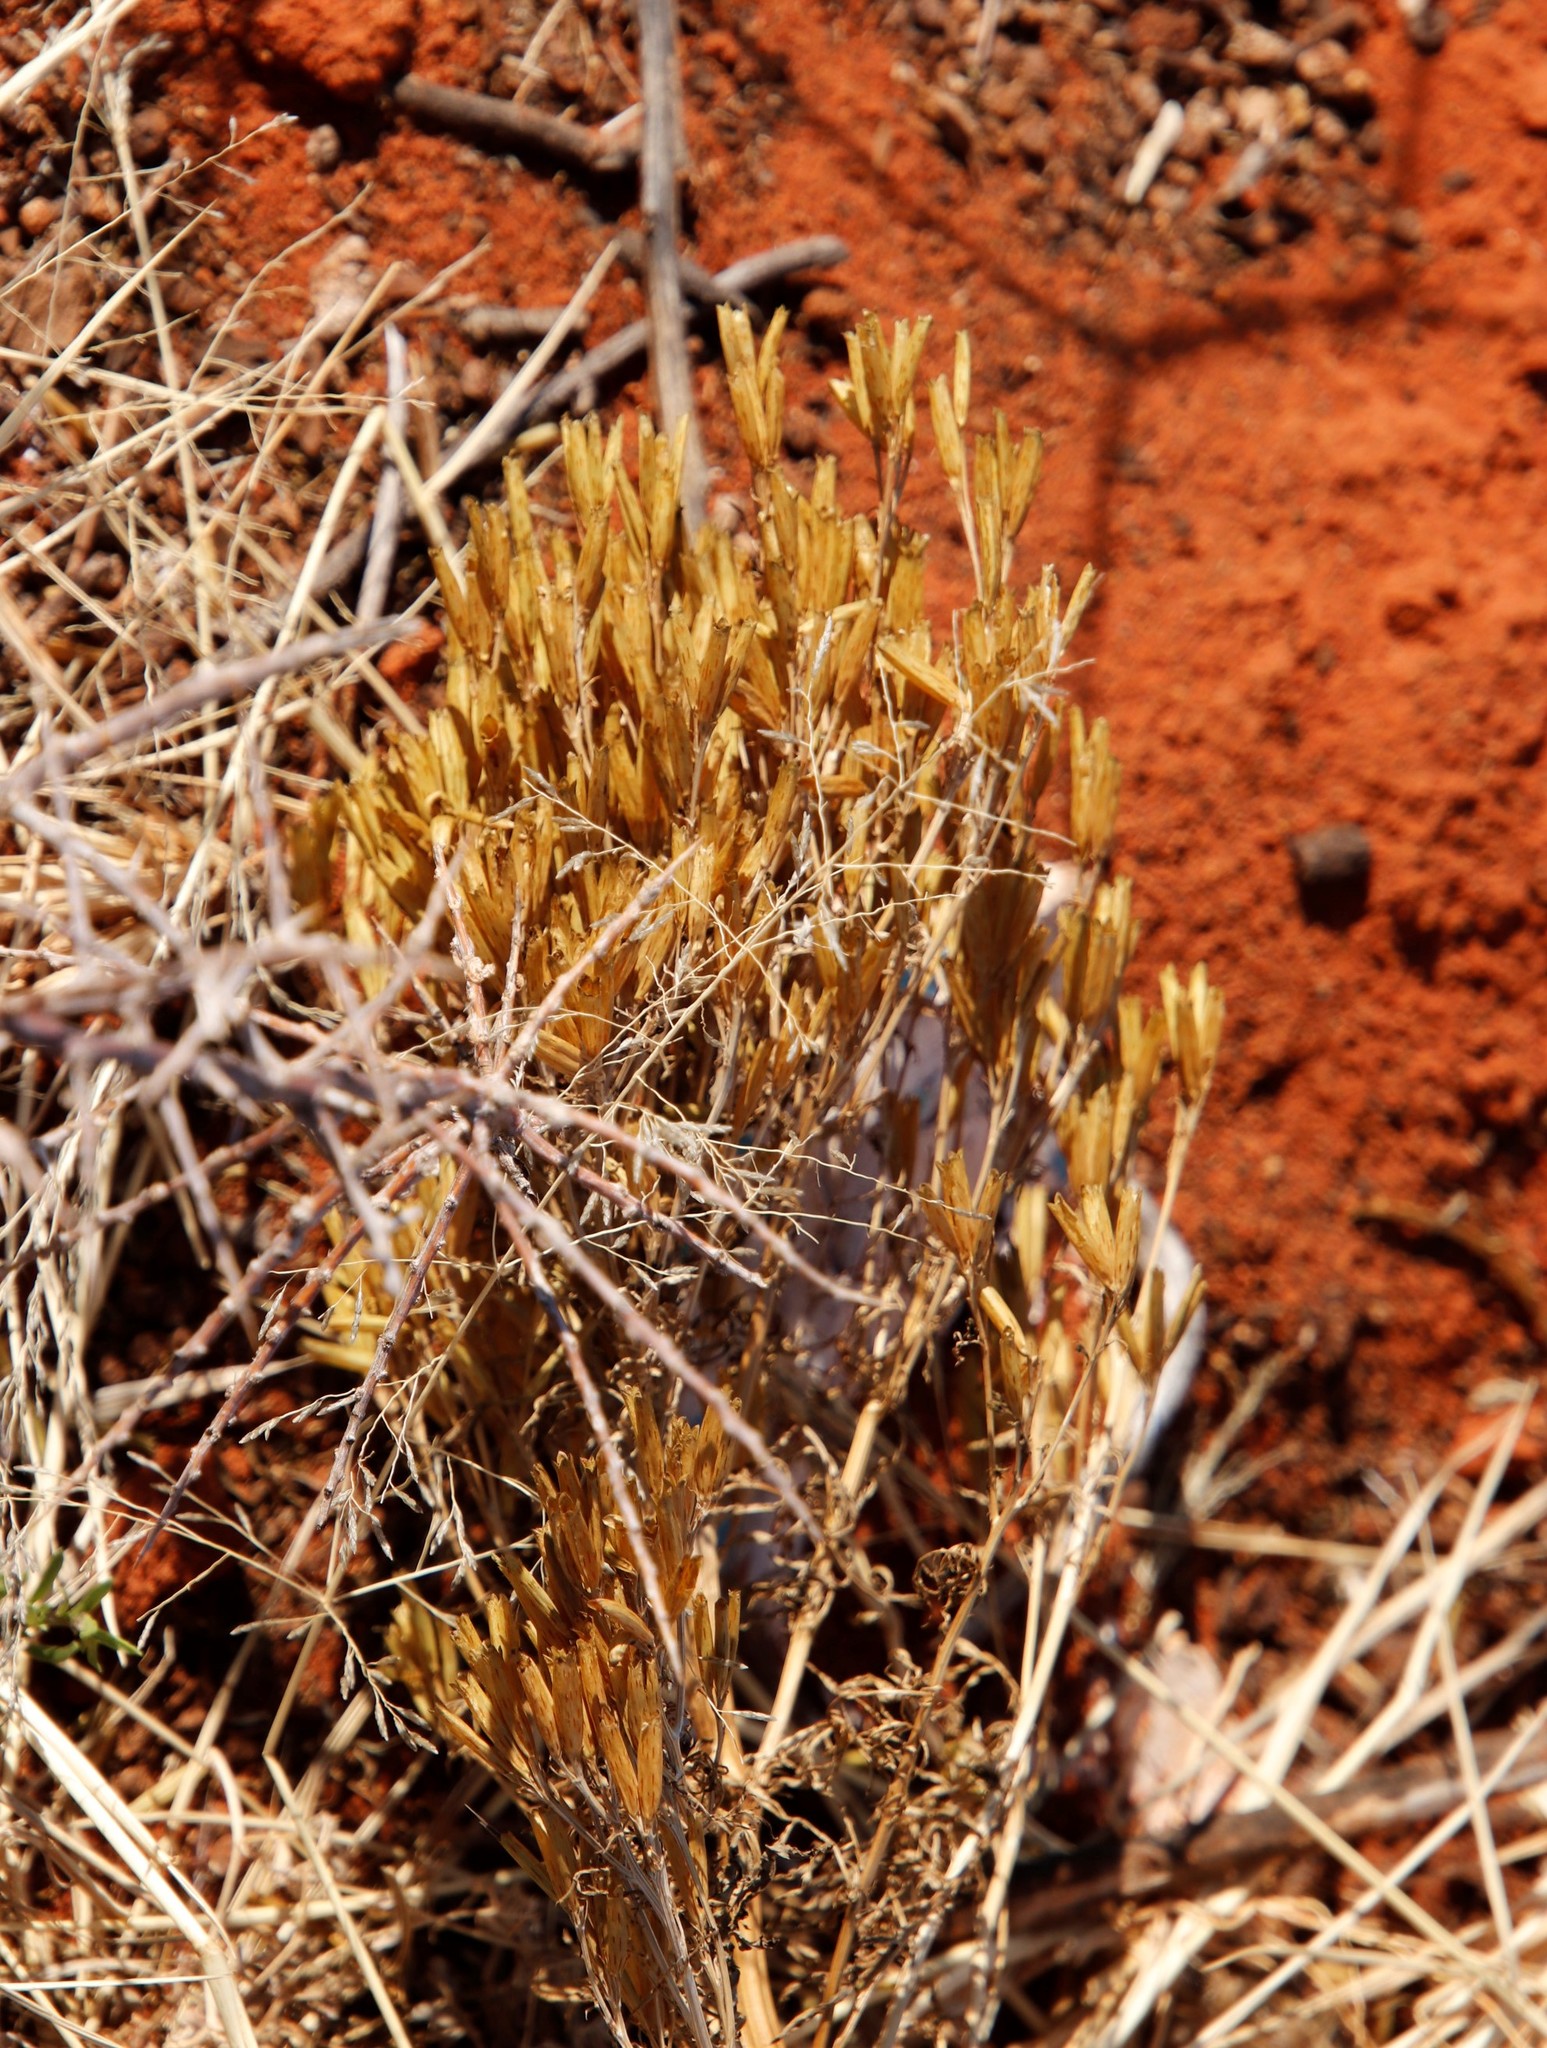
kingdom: Plantae
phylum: Tracheophyta
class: Magnoliopsida
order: Asterales
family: Asteraceae
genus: Tagetes
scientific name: Tagetes minuta
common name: Muster john henry
